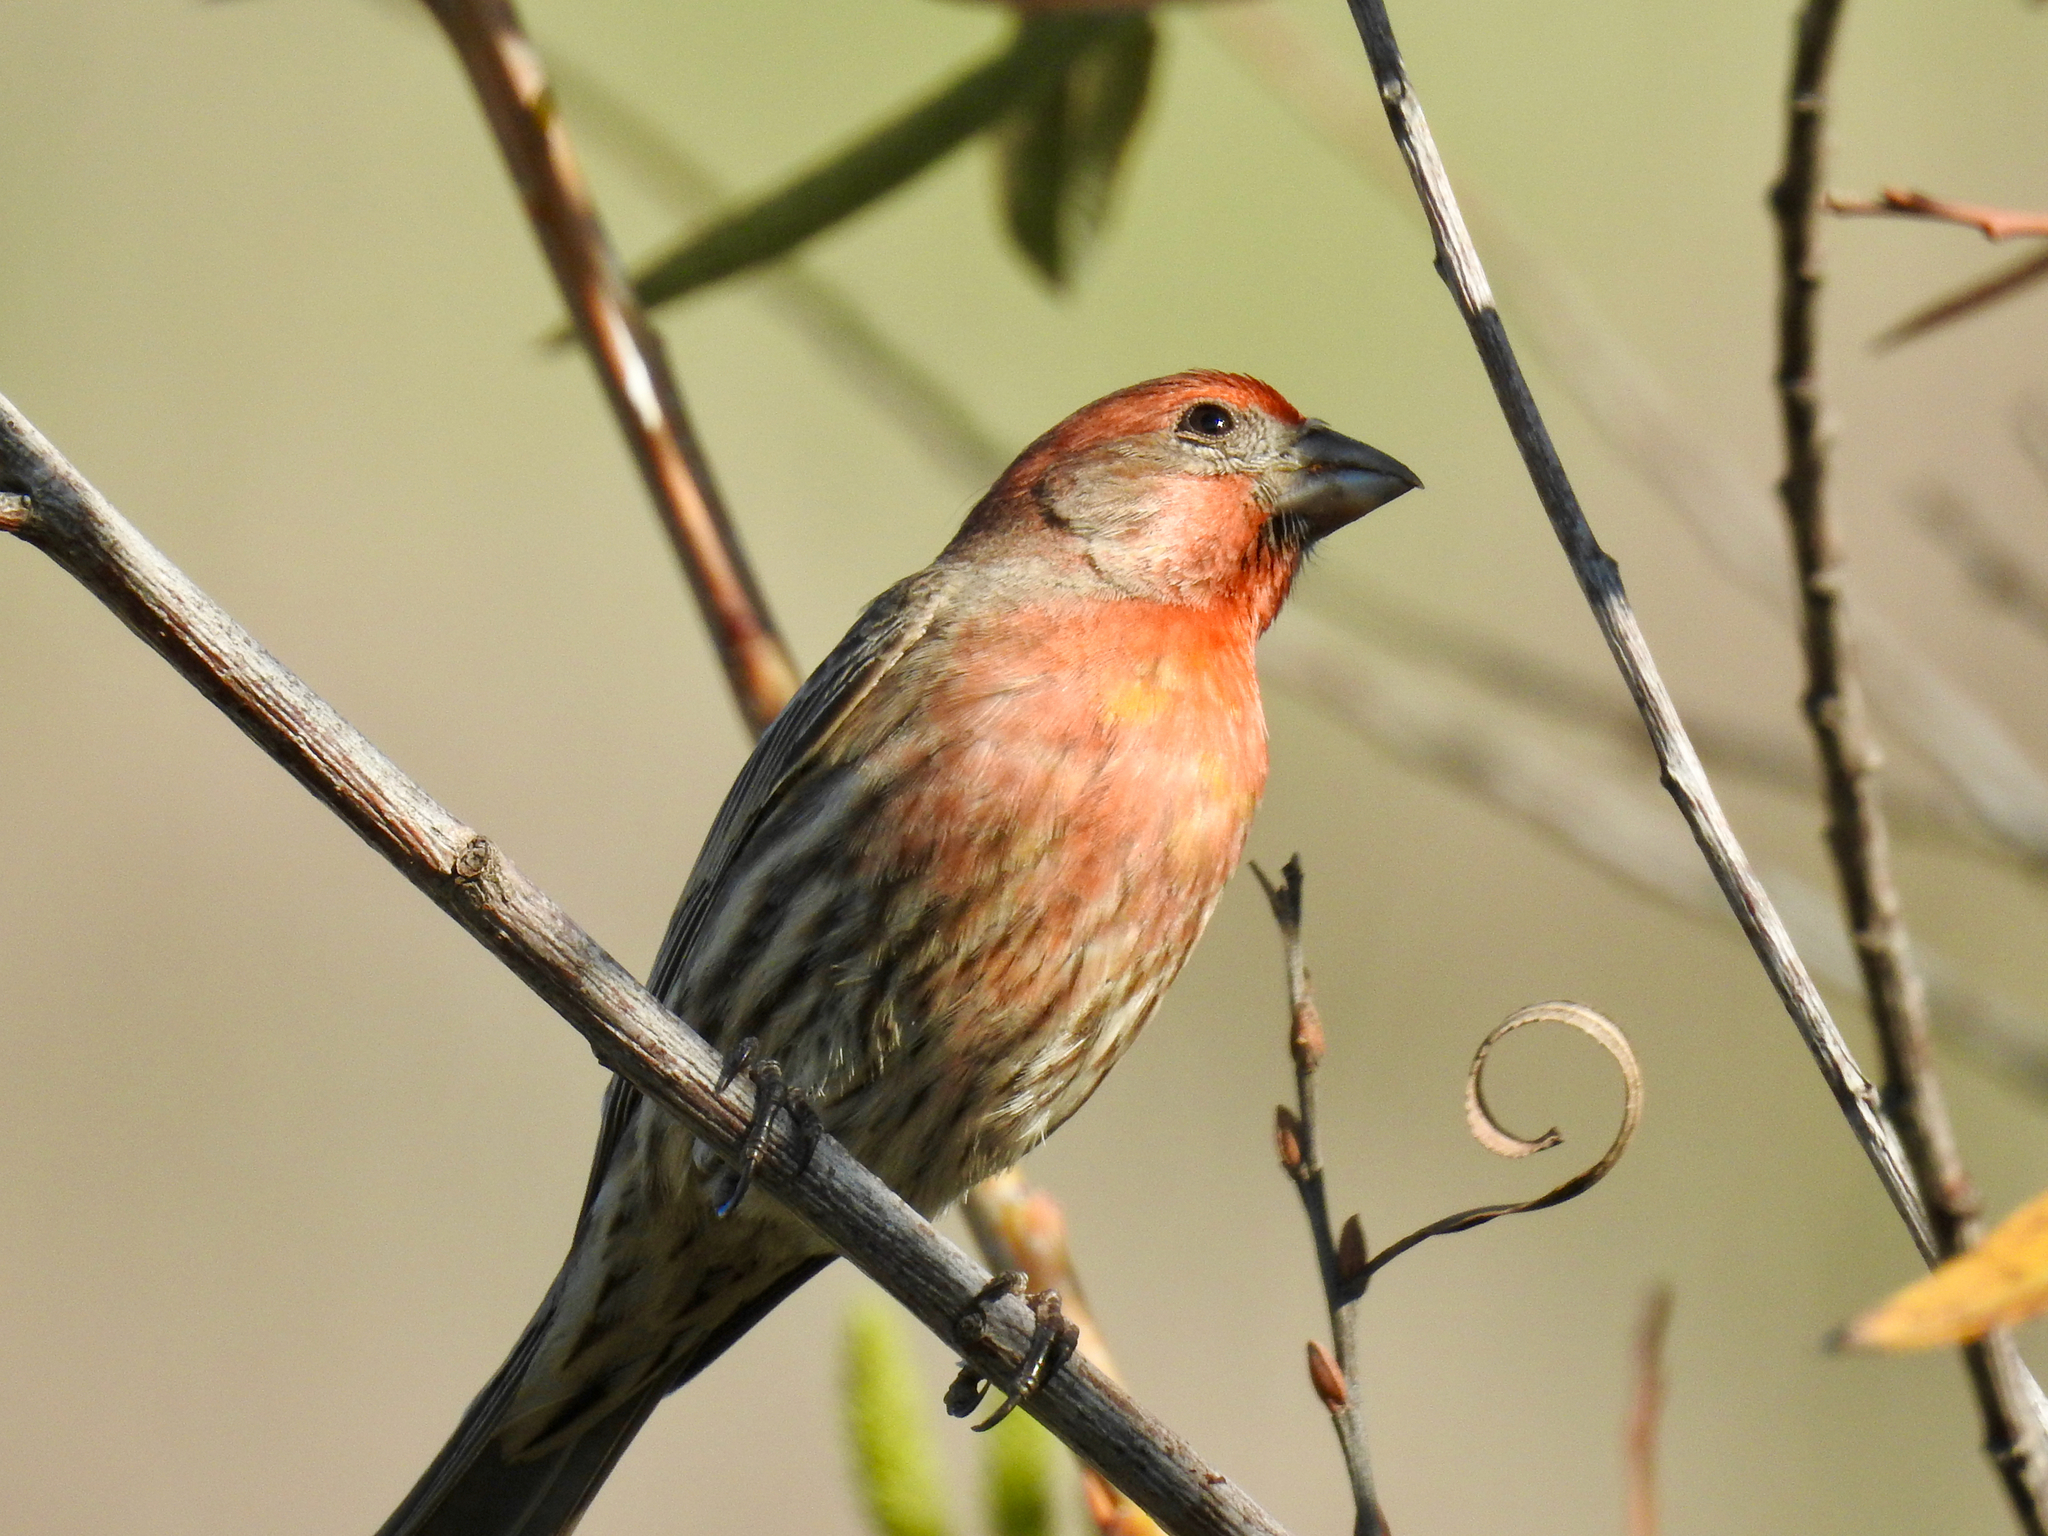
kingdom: Animalia
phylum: Chordata
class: Aves
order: Passeriformes
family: Fringillidae
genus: Haemorhous
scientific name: Haemorhous mexicanus
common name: House finch
